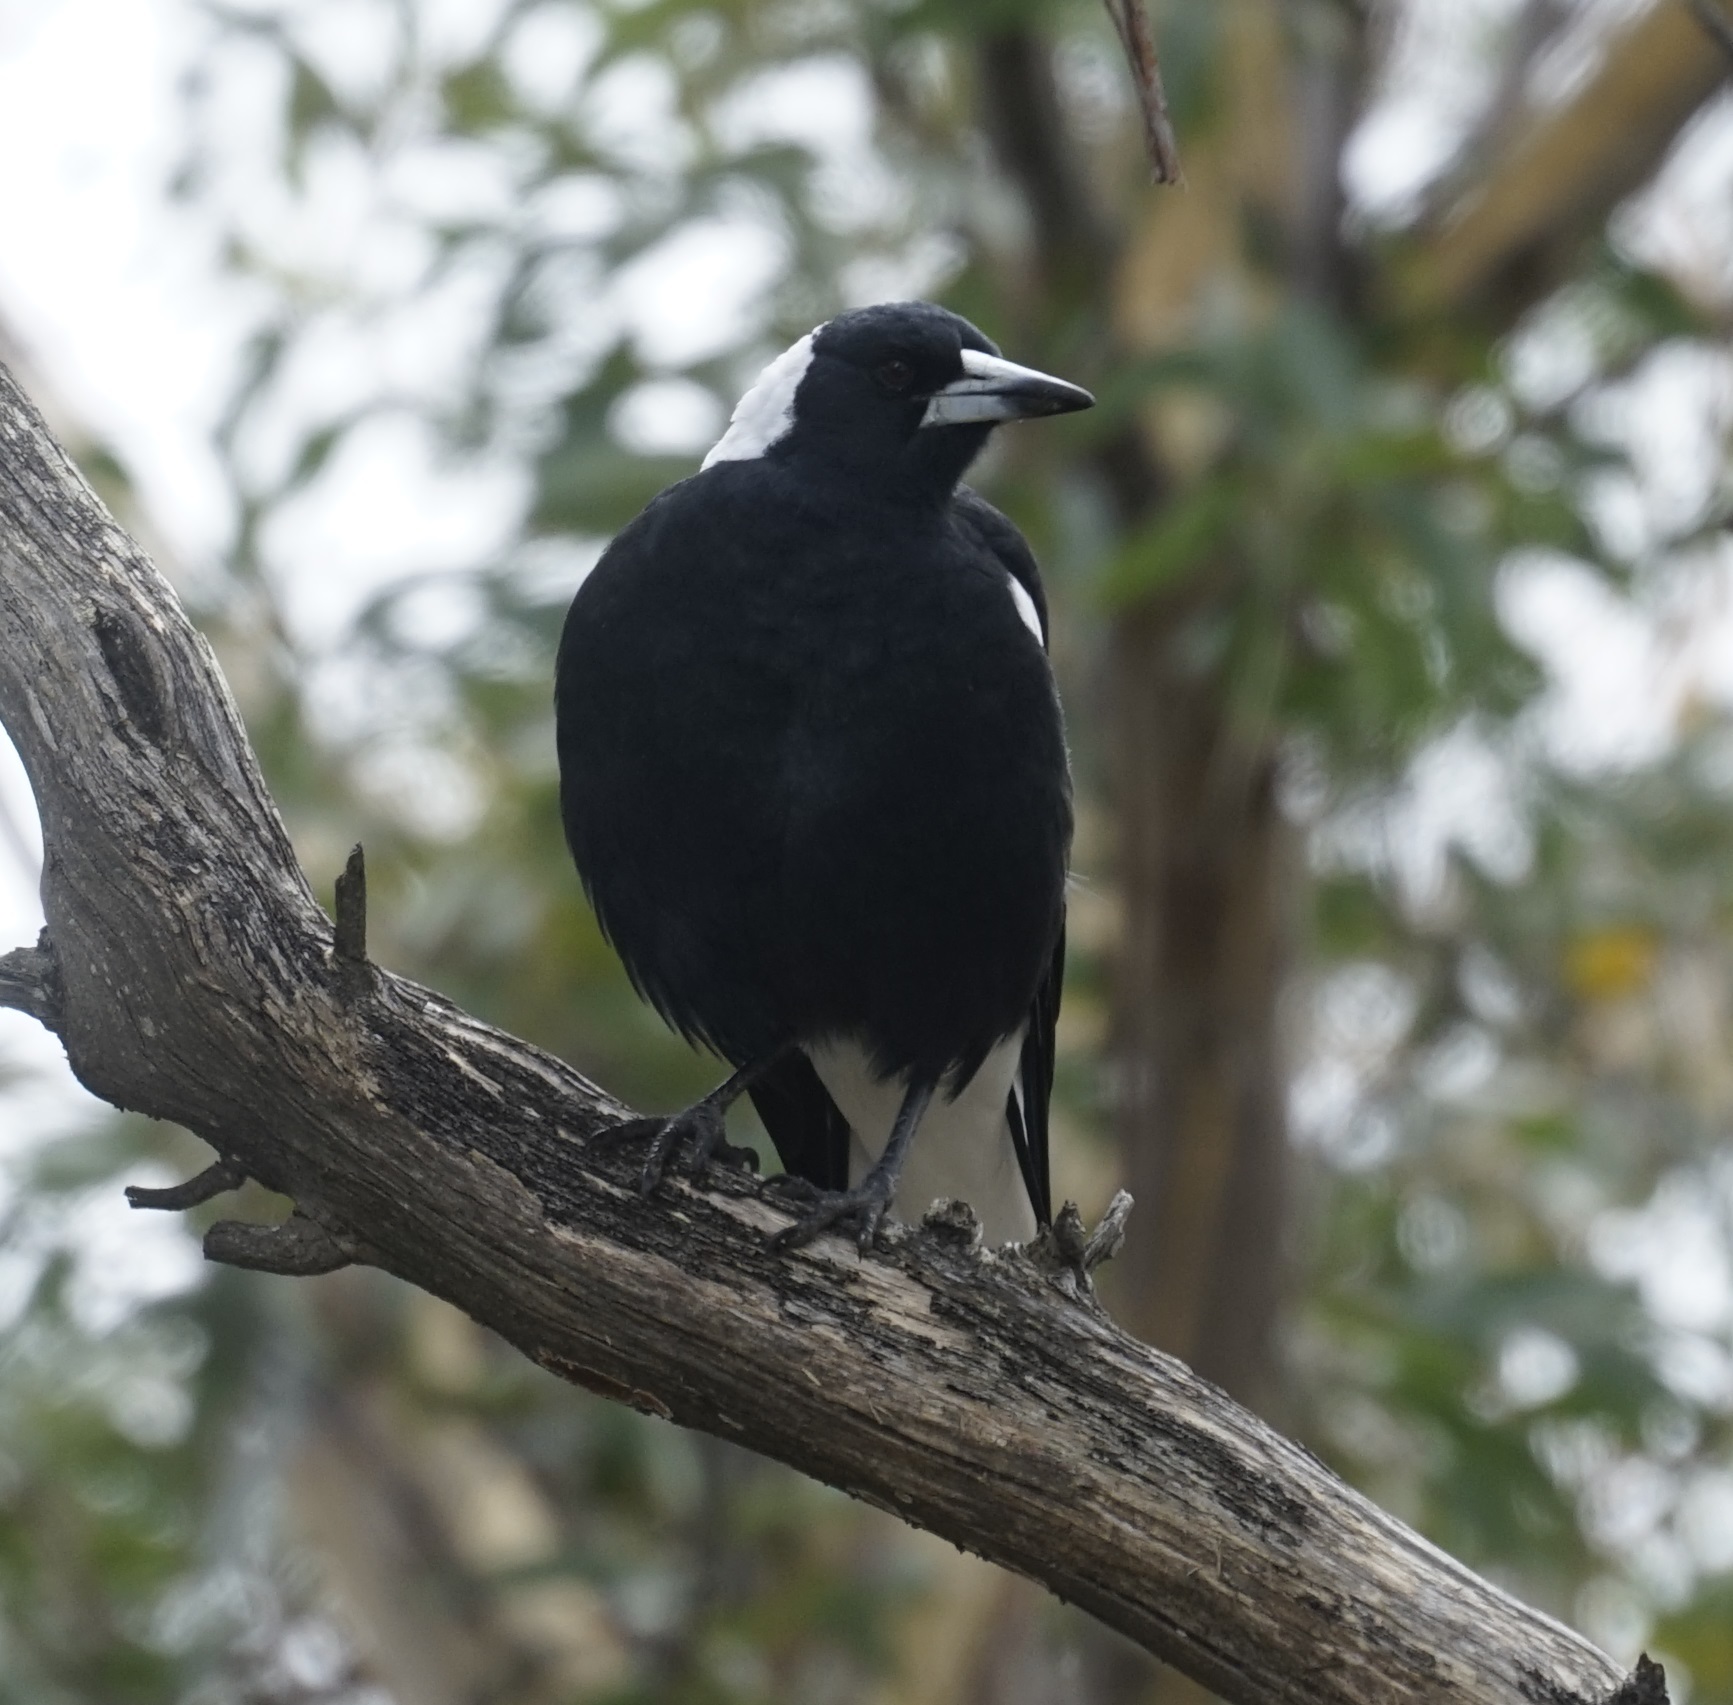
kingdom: Animalia
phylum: Chordata
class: Aves
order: Passeriformes
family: Cracticidae
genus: Gymnorhina
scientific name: Gymnorhina tibicen
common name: Australian magpie
